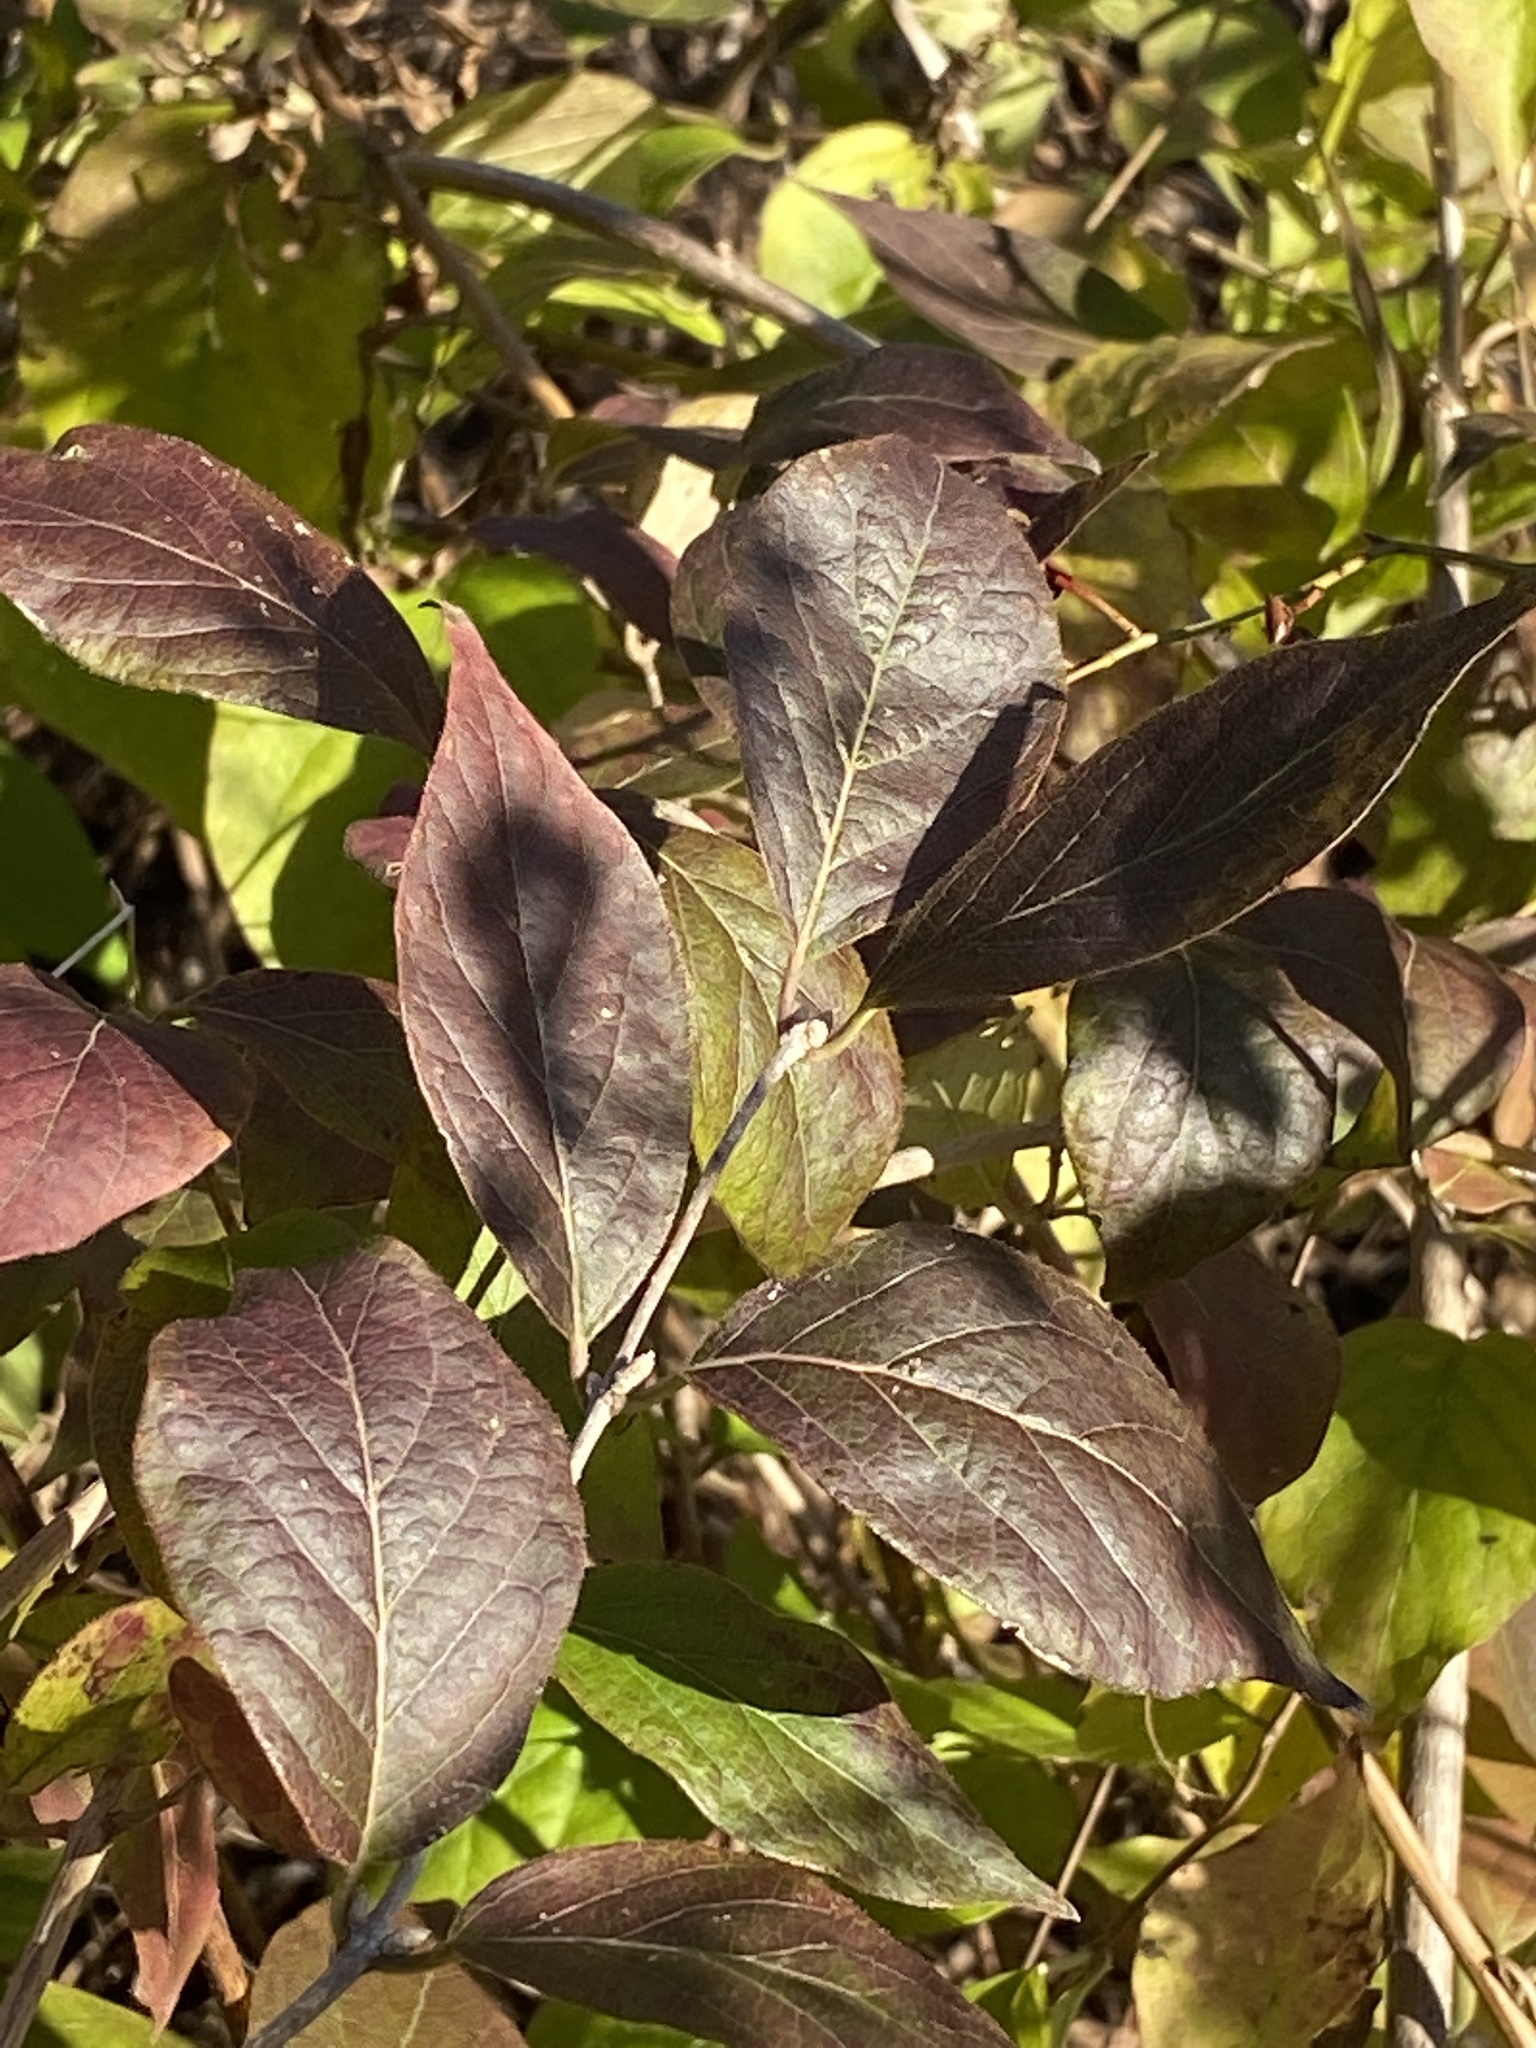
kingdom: Plantae
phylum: Tracheophyta
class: Magnoliopsida
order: Dipsacales
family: Caprifoliaceae
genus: Lonicera
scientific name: Lonicera maackii
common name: Amur honeysuckle
